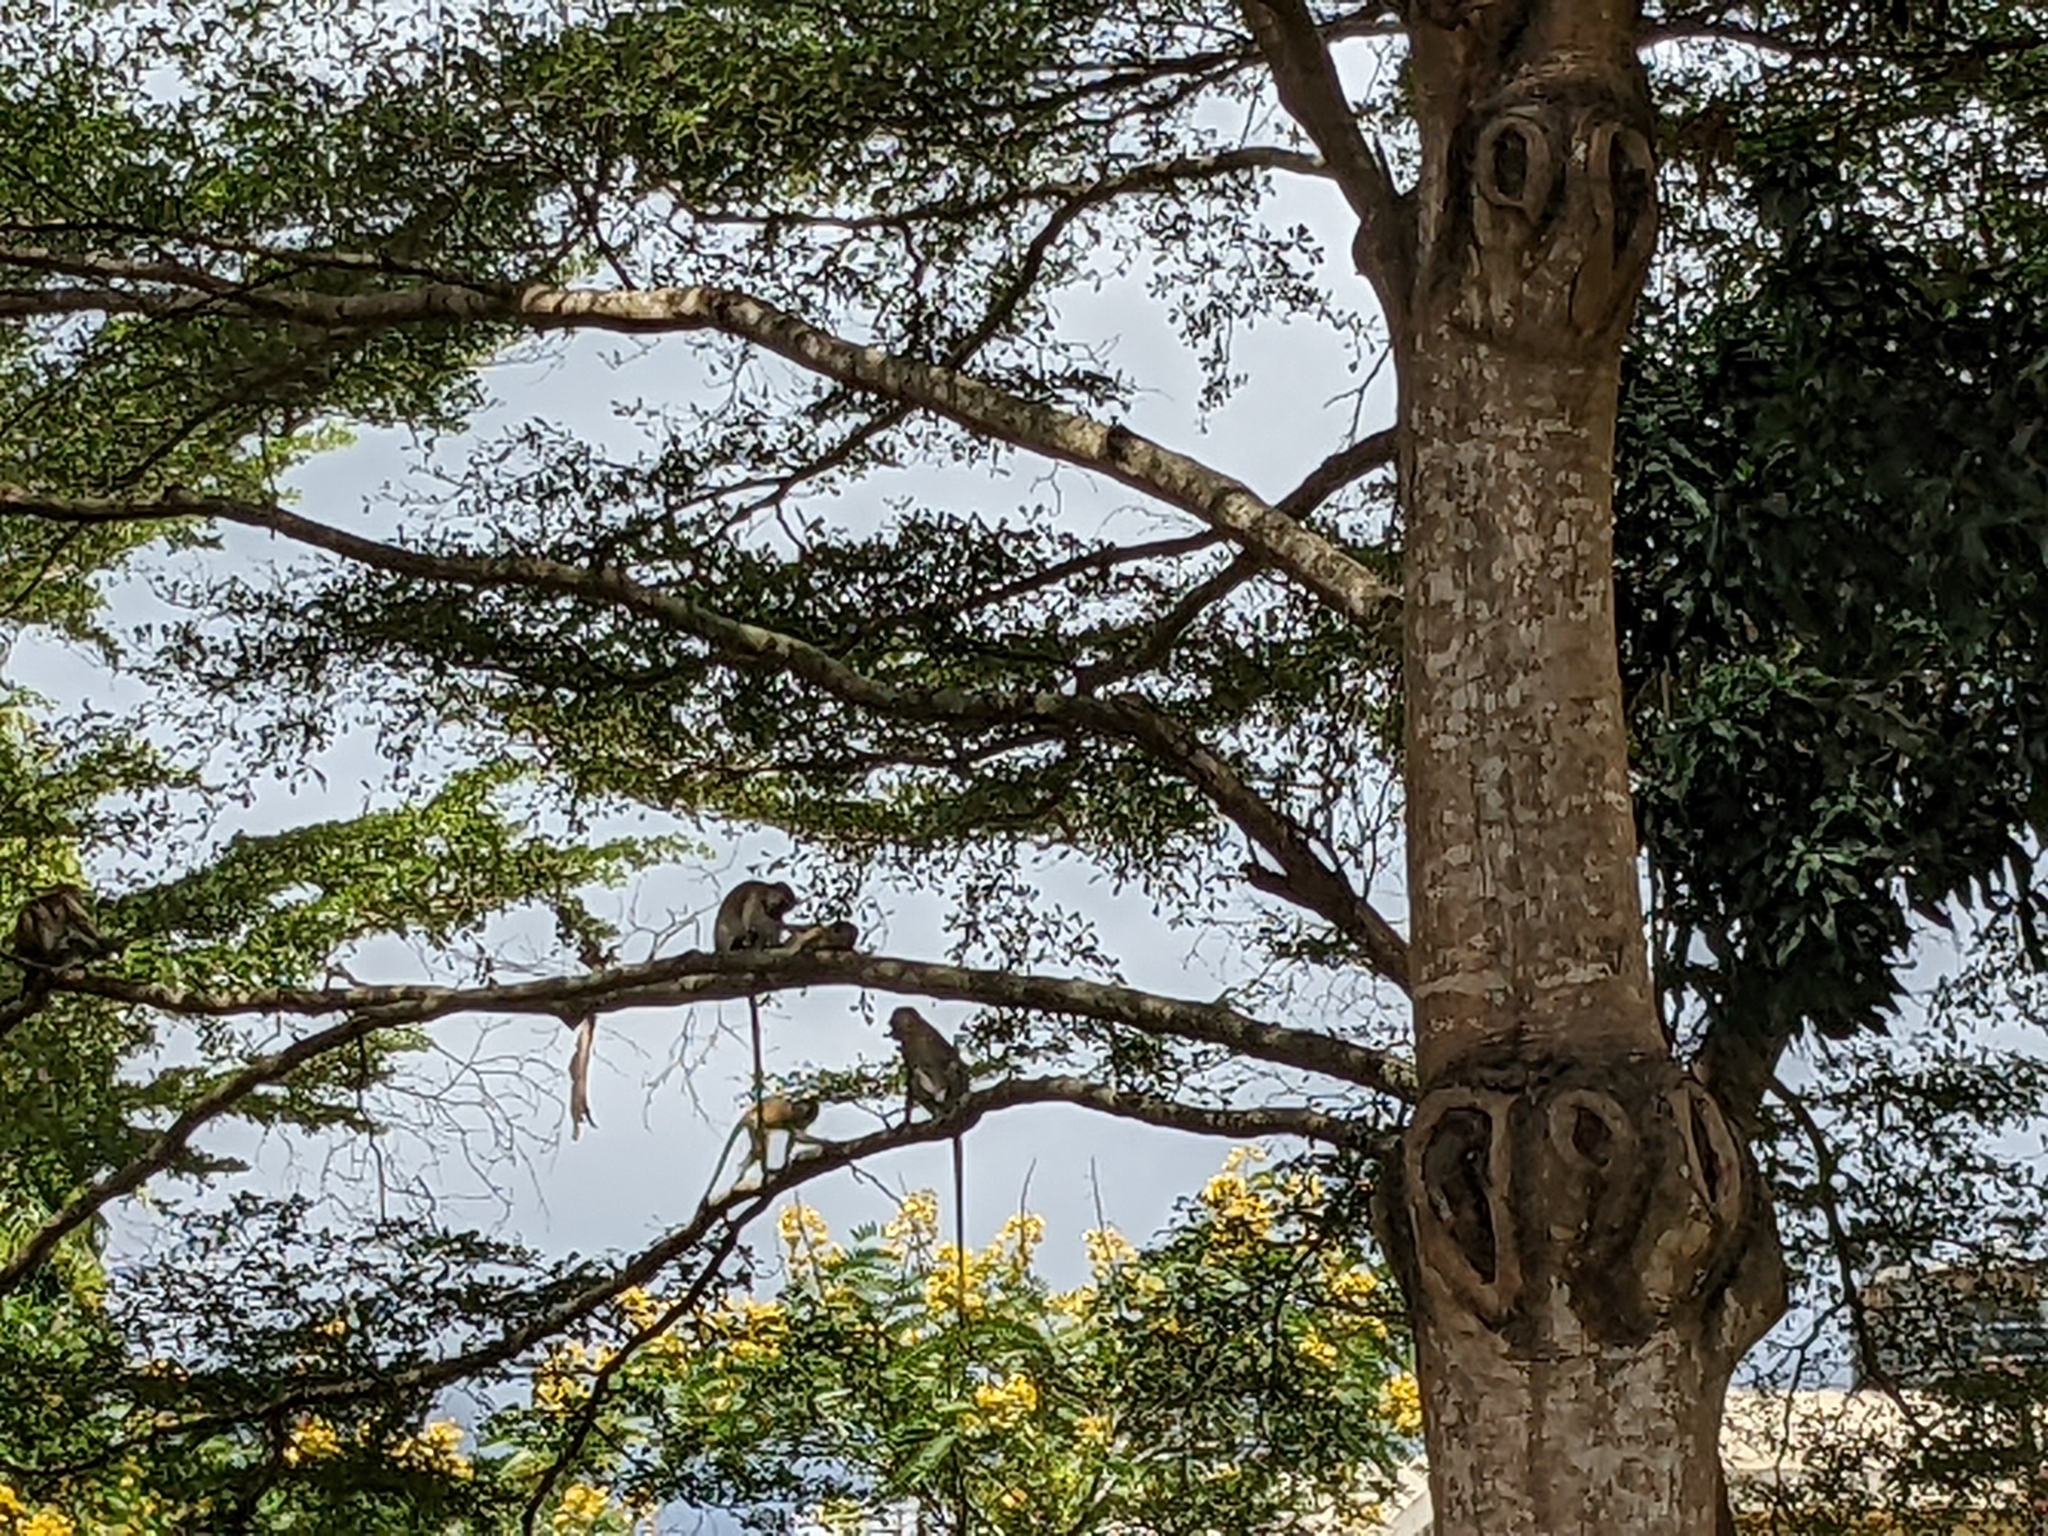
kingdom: Animalia
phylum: Chordata
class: Mammalia
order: Primates
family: Cercopithecidae
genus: Chlorocebus
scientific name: Chlorocebus pygerythrus
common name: Vervet monkey
